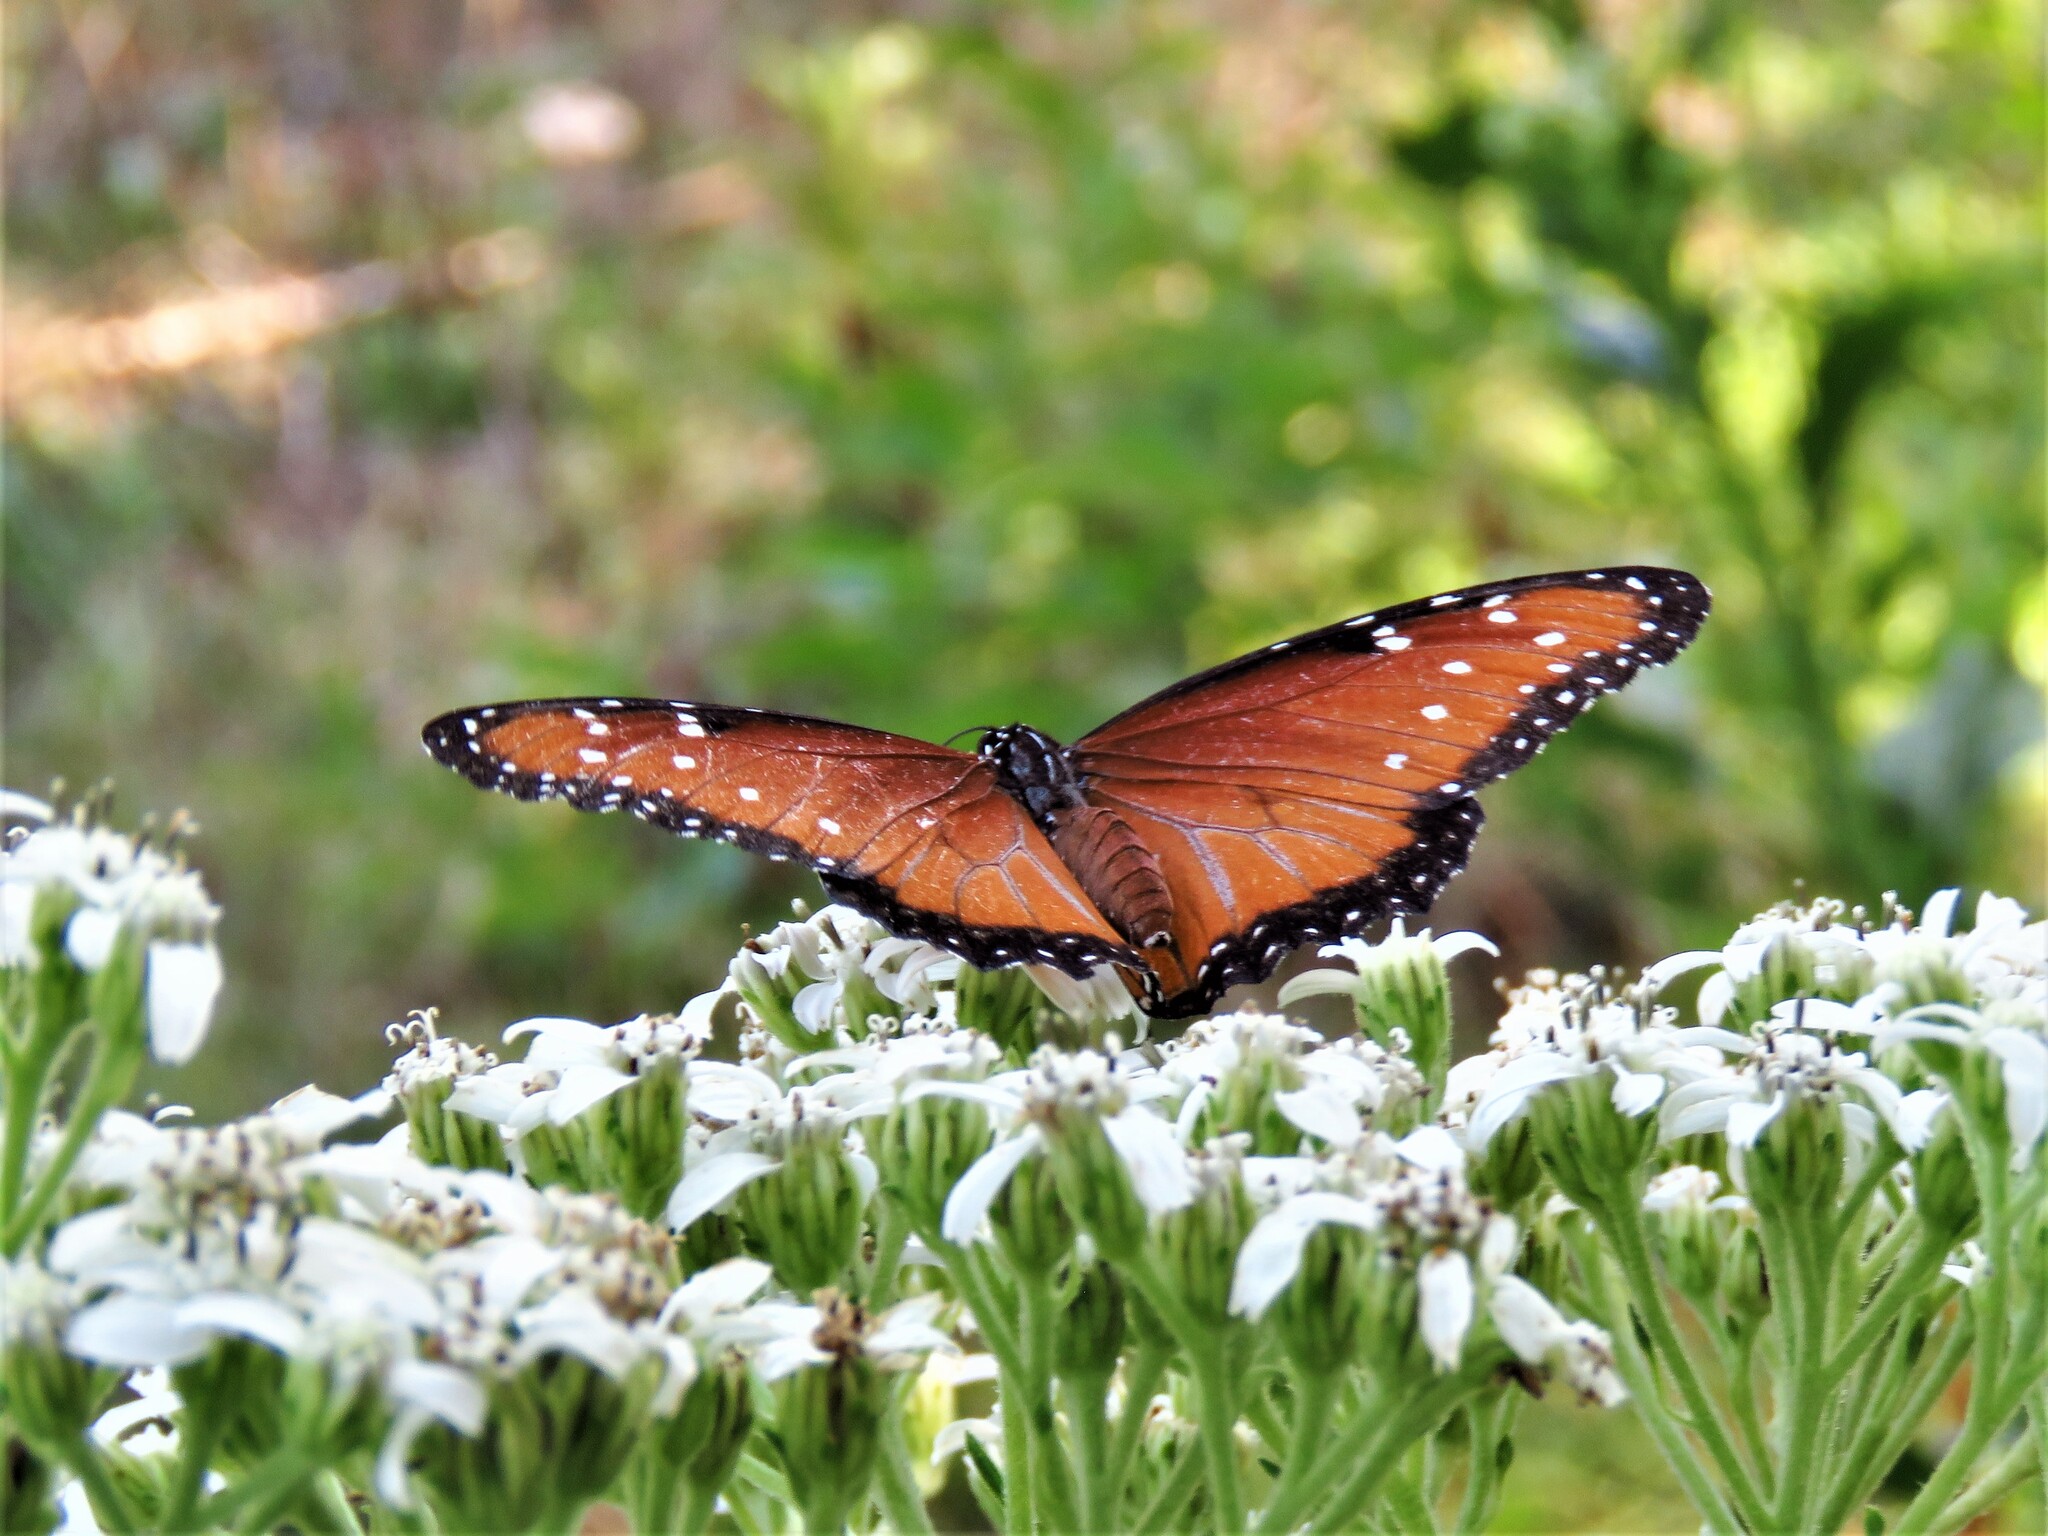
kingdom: Animalia
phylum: Arthropoda
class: Insecta
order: Lepidoptera
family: Nymphalidae
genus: Danaus
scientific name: Danaus gilippus
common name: Queen
